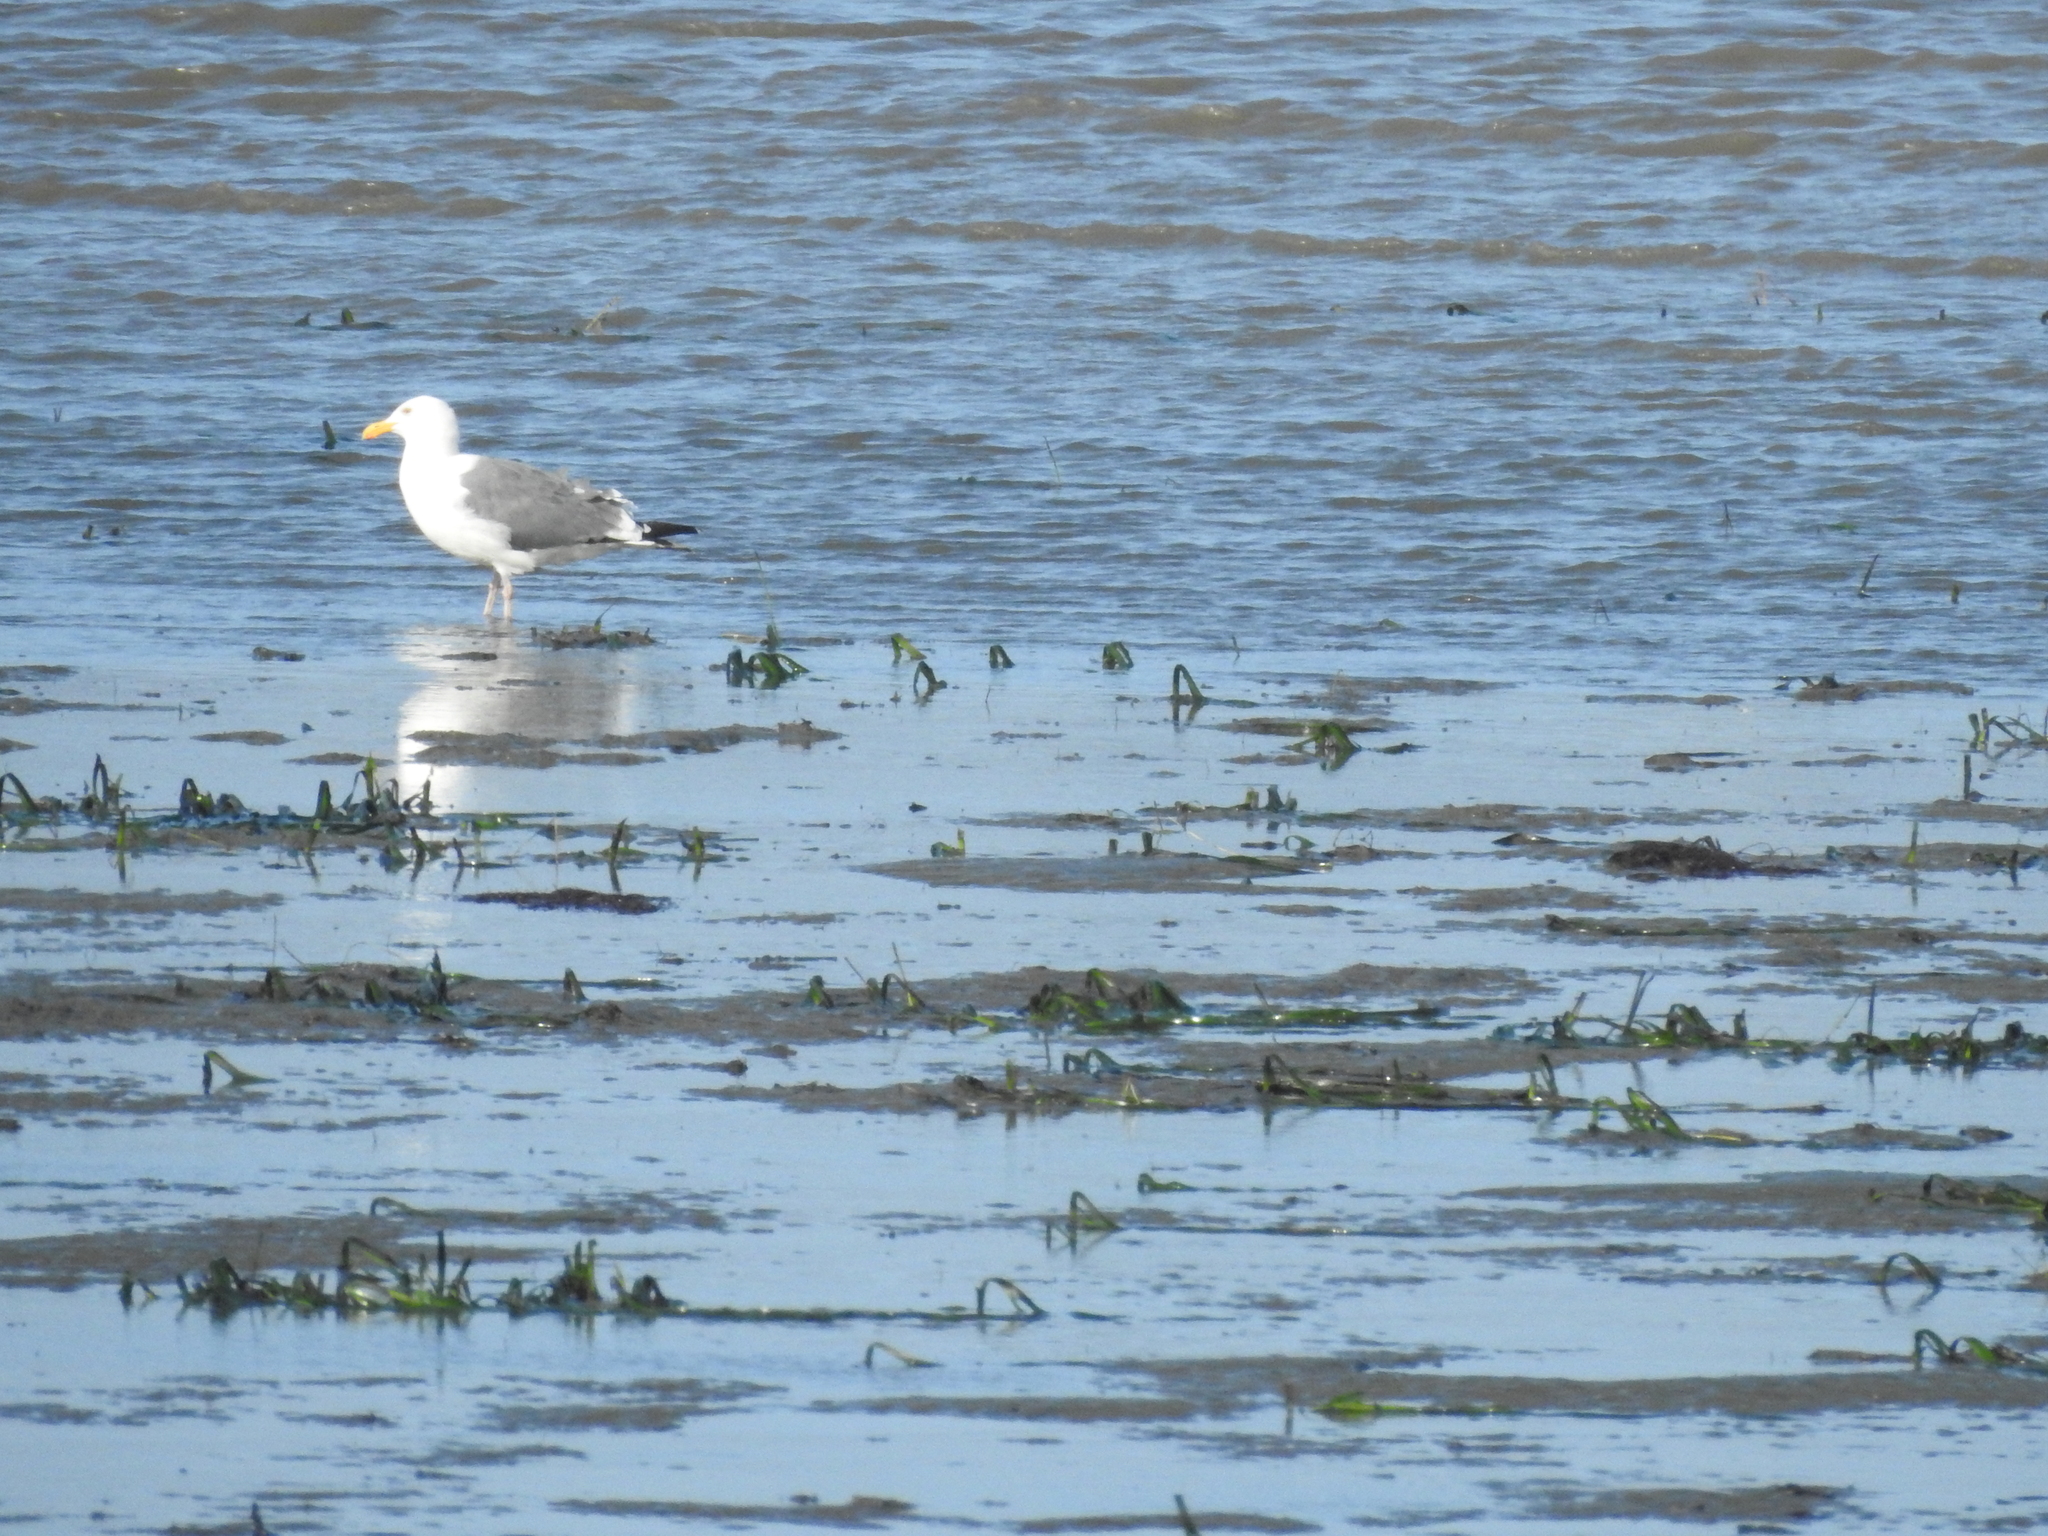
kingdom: Animalia
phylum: Chordata
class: Aves
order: Charadriiformes
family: Laridae
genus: Larus
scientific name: Larus occidentalis
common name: Western gull
